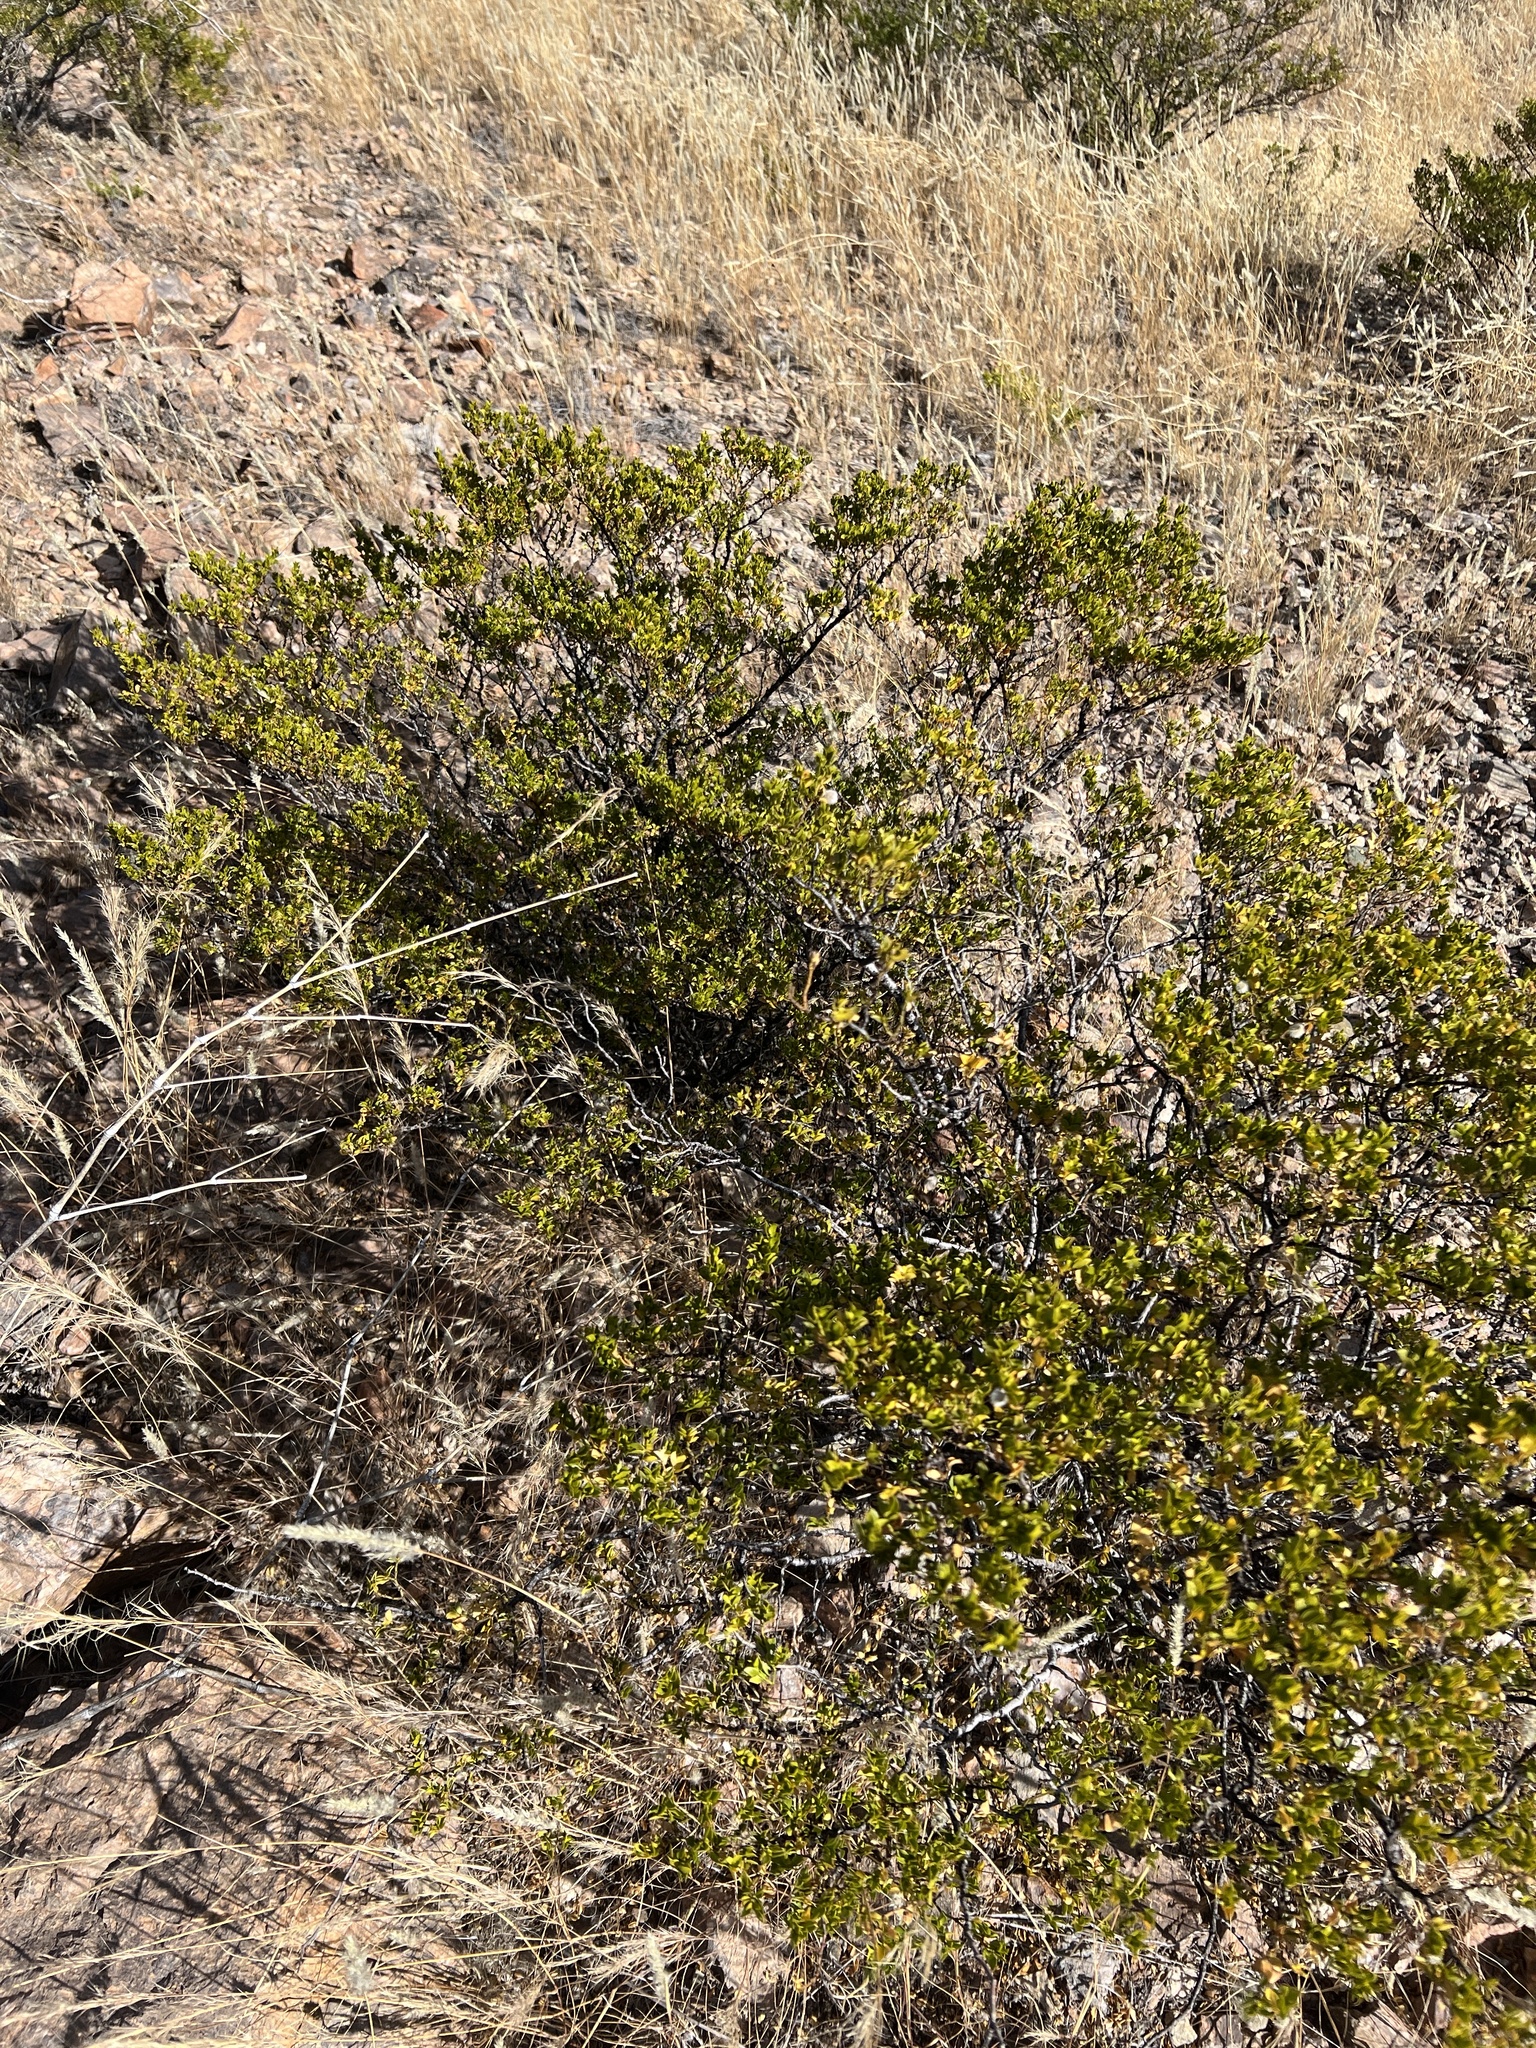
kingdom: Plantae
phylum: Tracheophyta
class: Magnoliopsida
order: Zygophyllales
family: Zygophyllaceae
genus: Larrea
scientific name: Larrea tridentata
